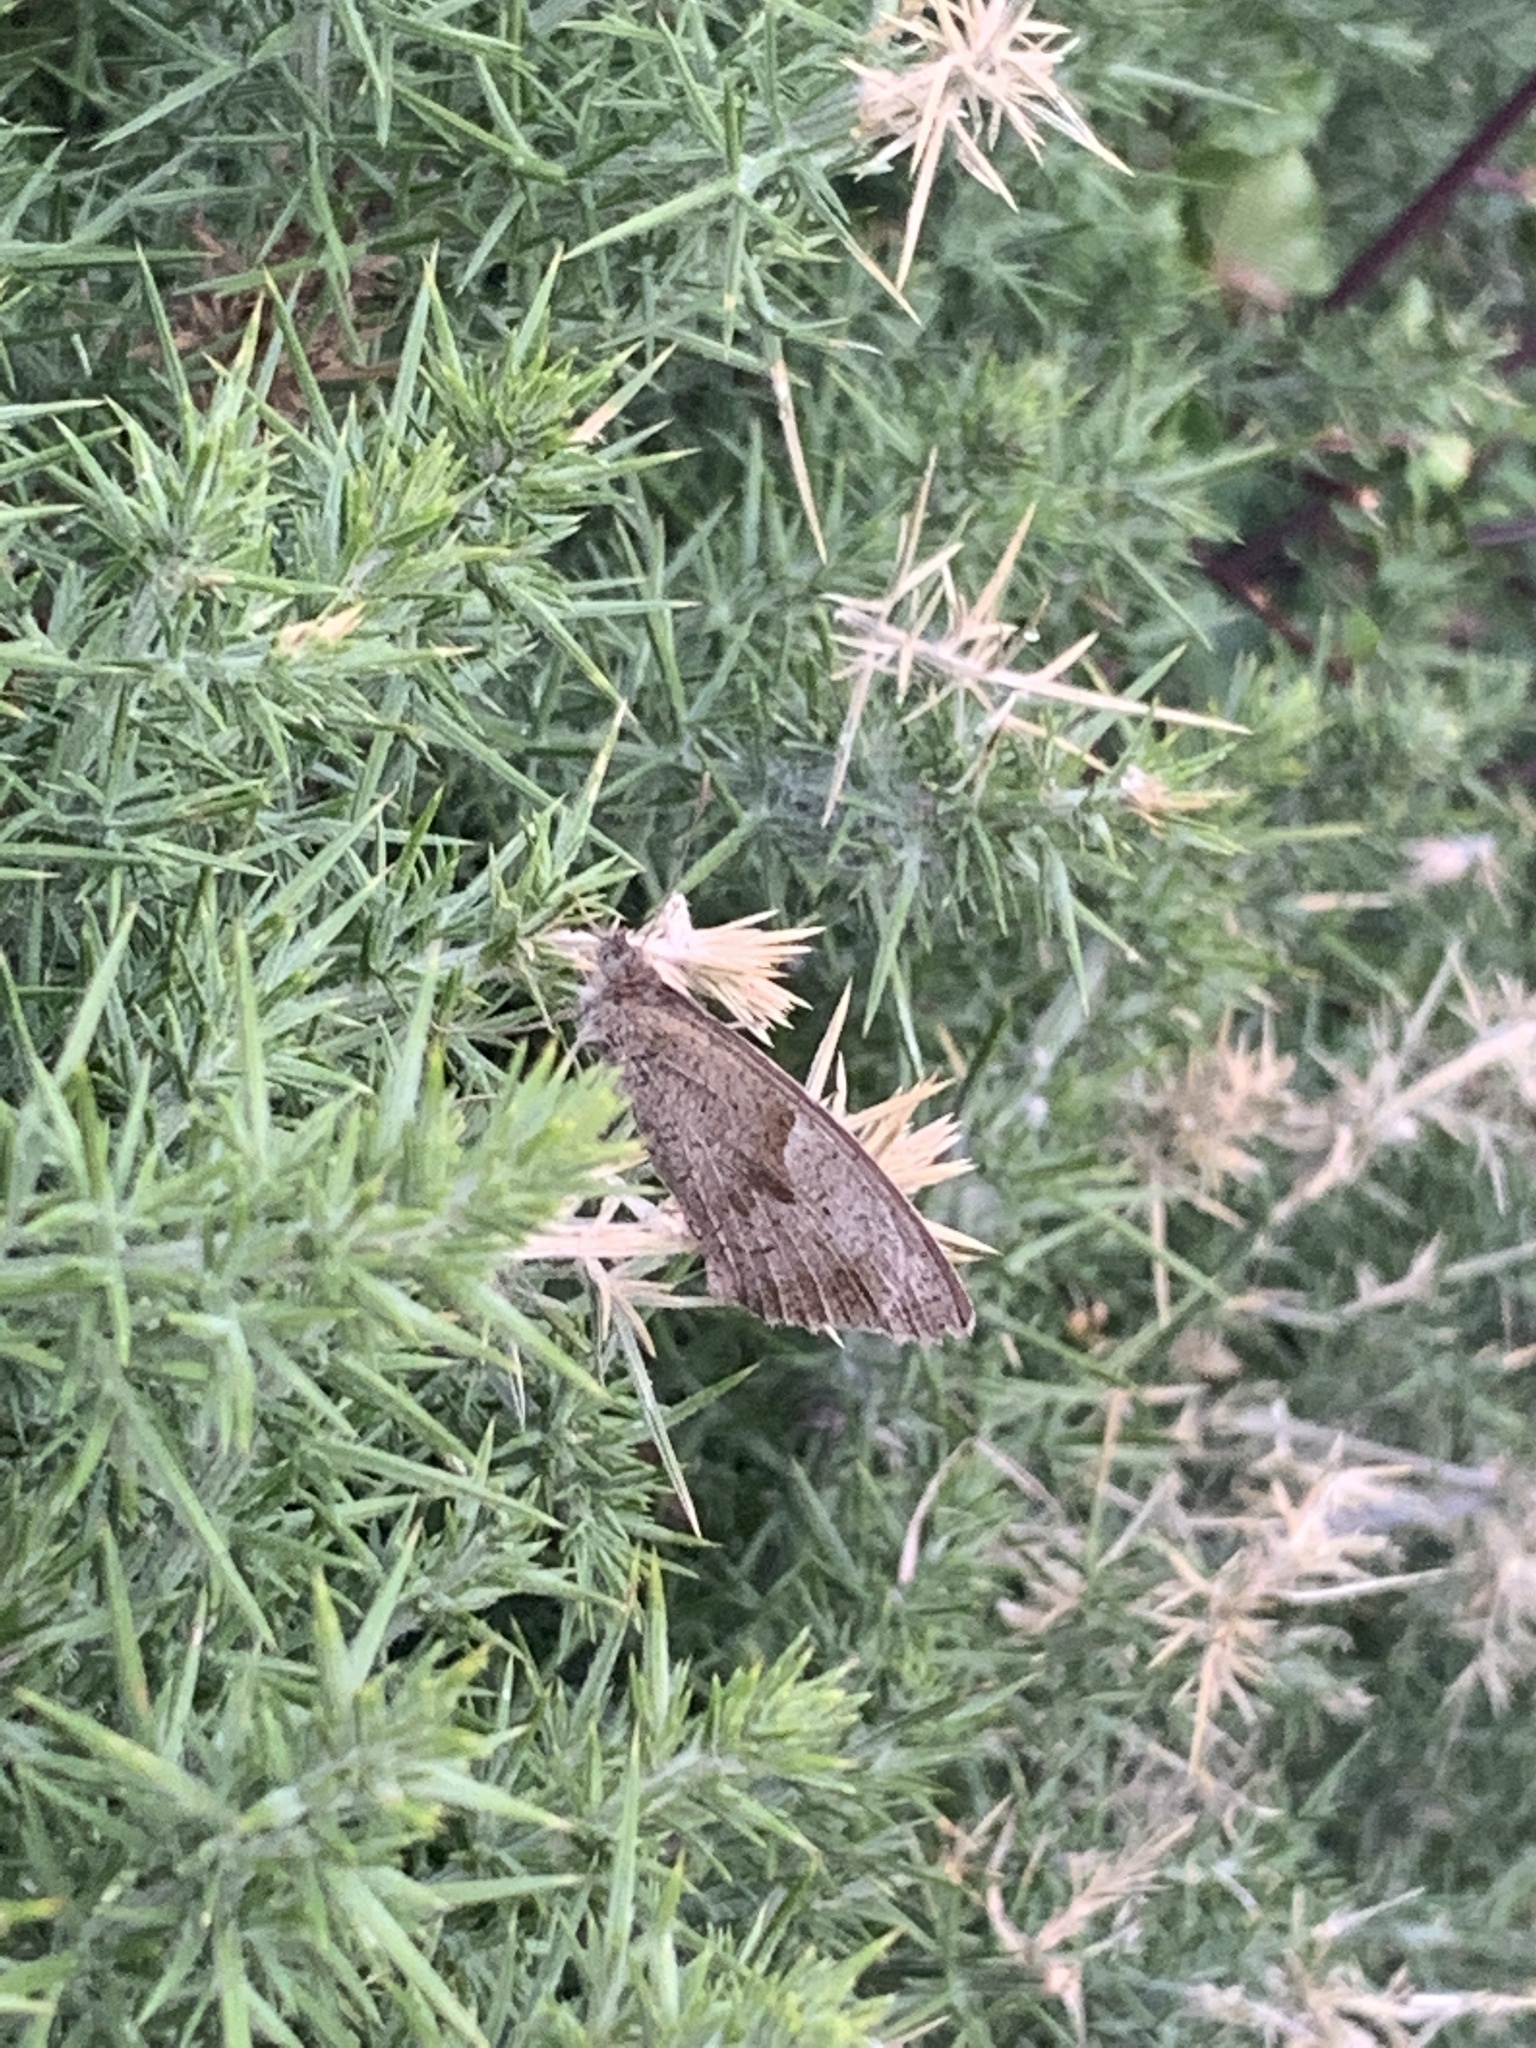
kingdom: Animalia
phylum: Arthropoda
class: Insecta
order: Lepidoptera
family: Nymphalidae
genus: Maniola
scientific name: Maniola jurtina
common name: Meadow brown
